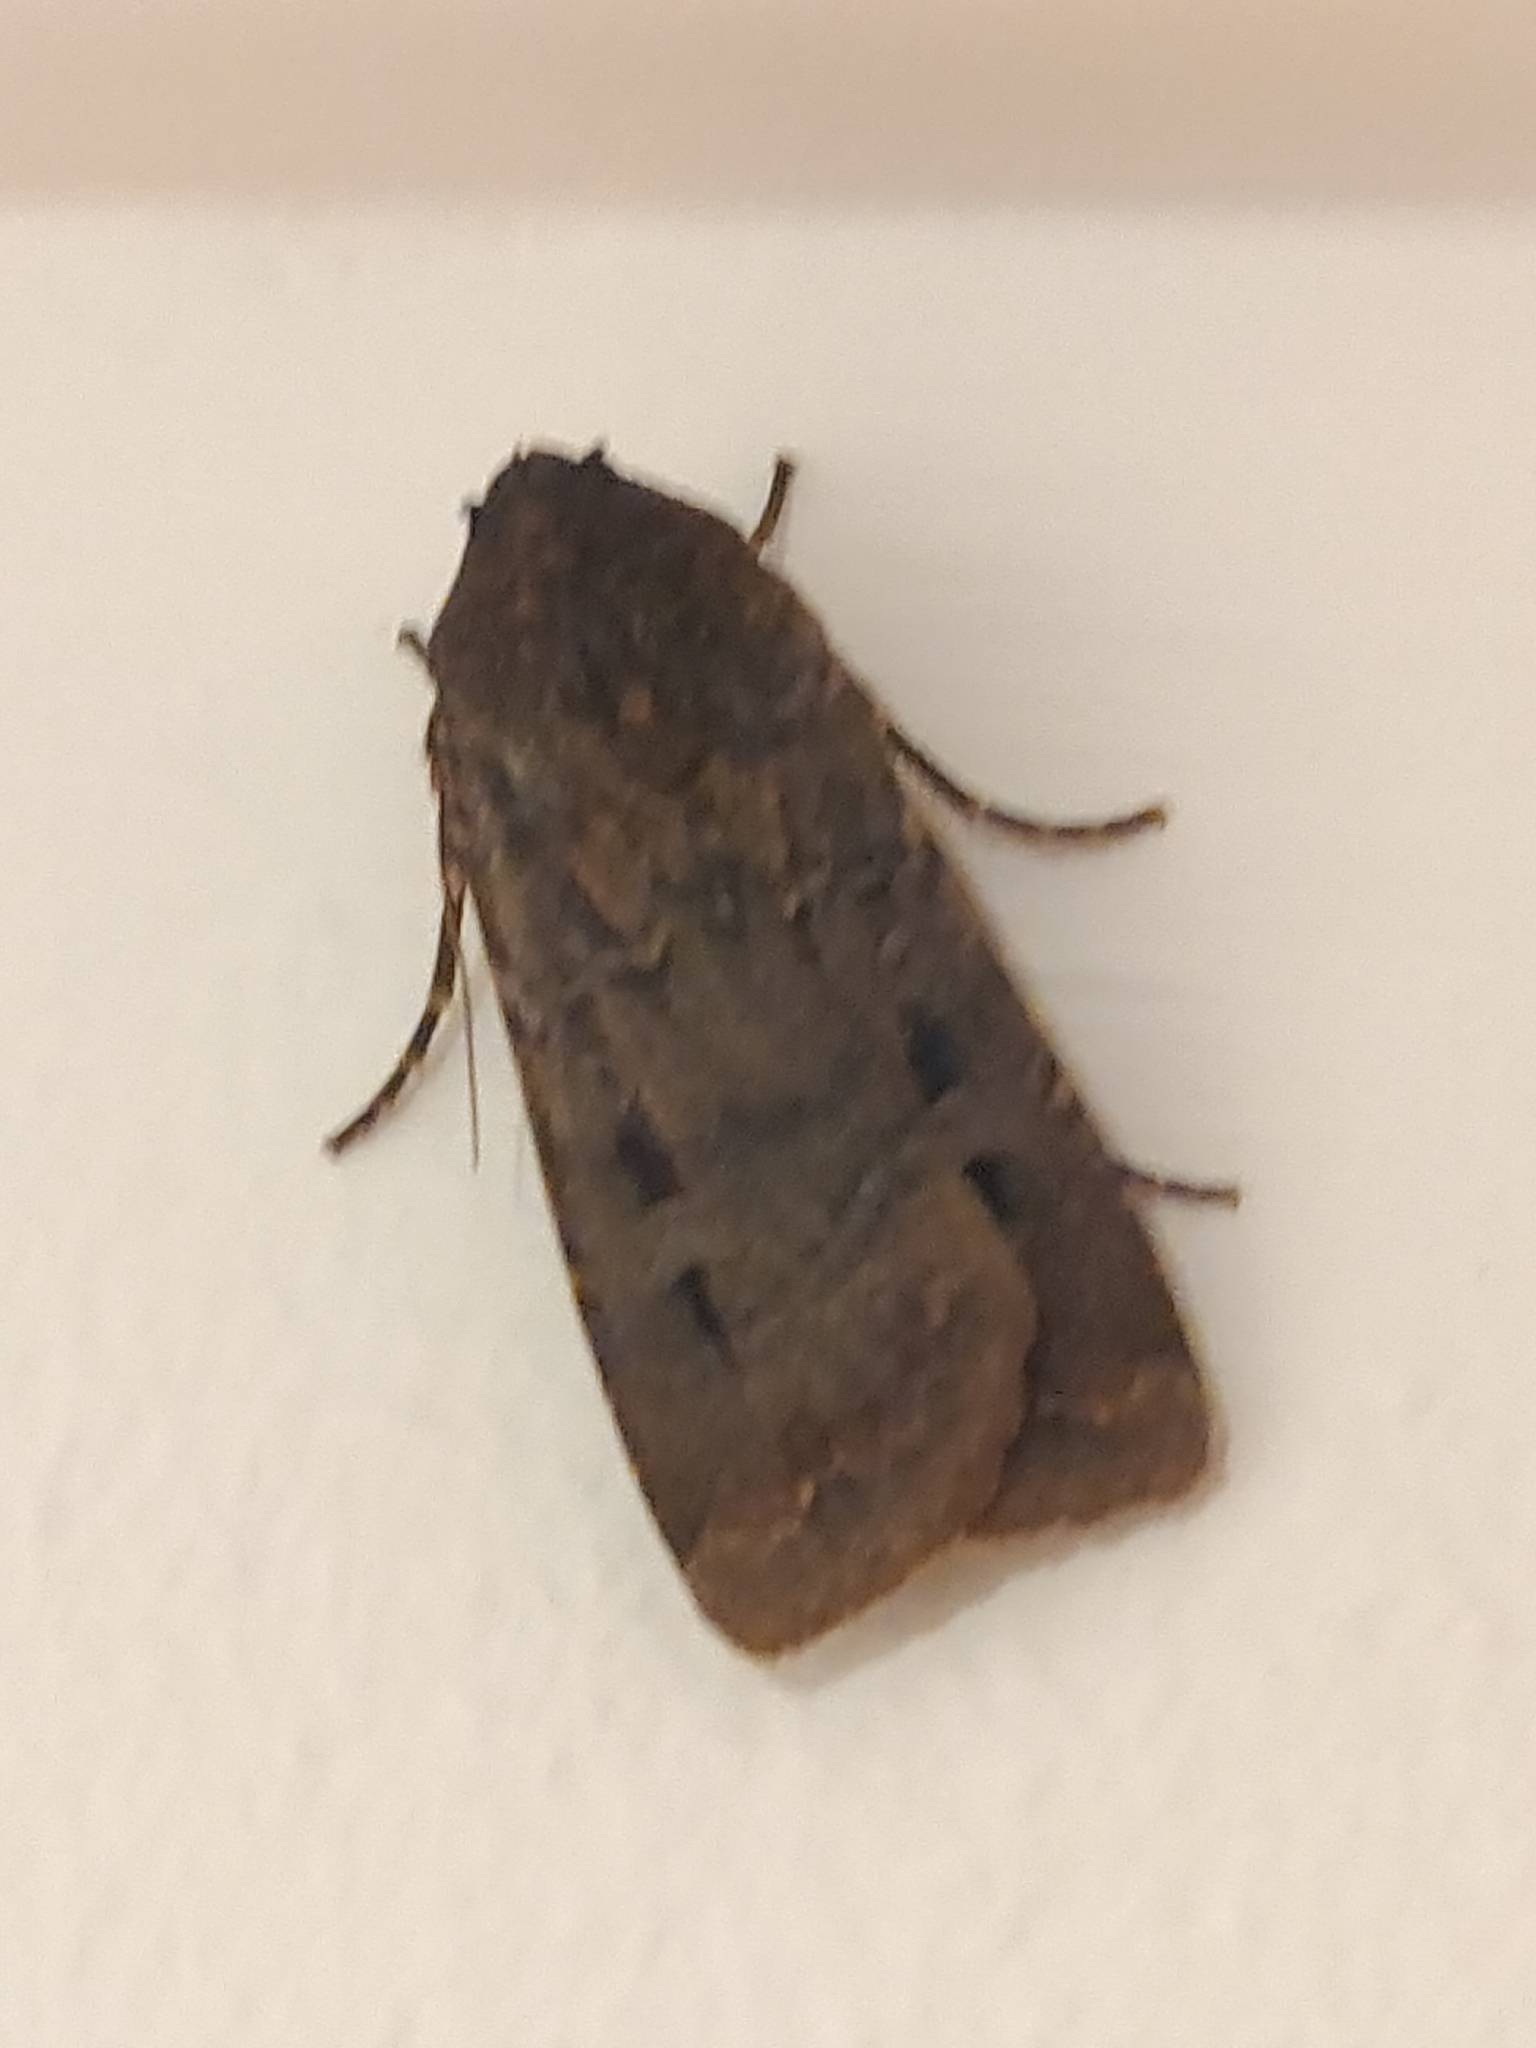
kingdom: Animalia
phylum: Arthropoda
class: Insecta
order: Lepidoptera
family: Noctuidae
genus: Agrotis
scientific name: Agrotis infusa
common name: Bogong moth
